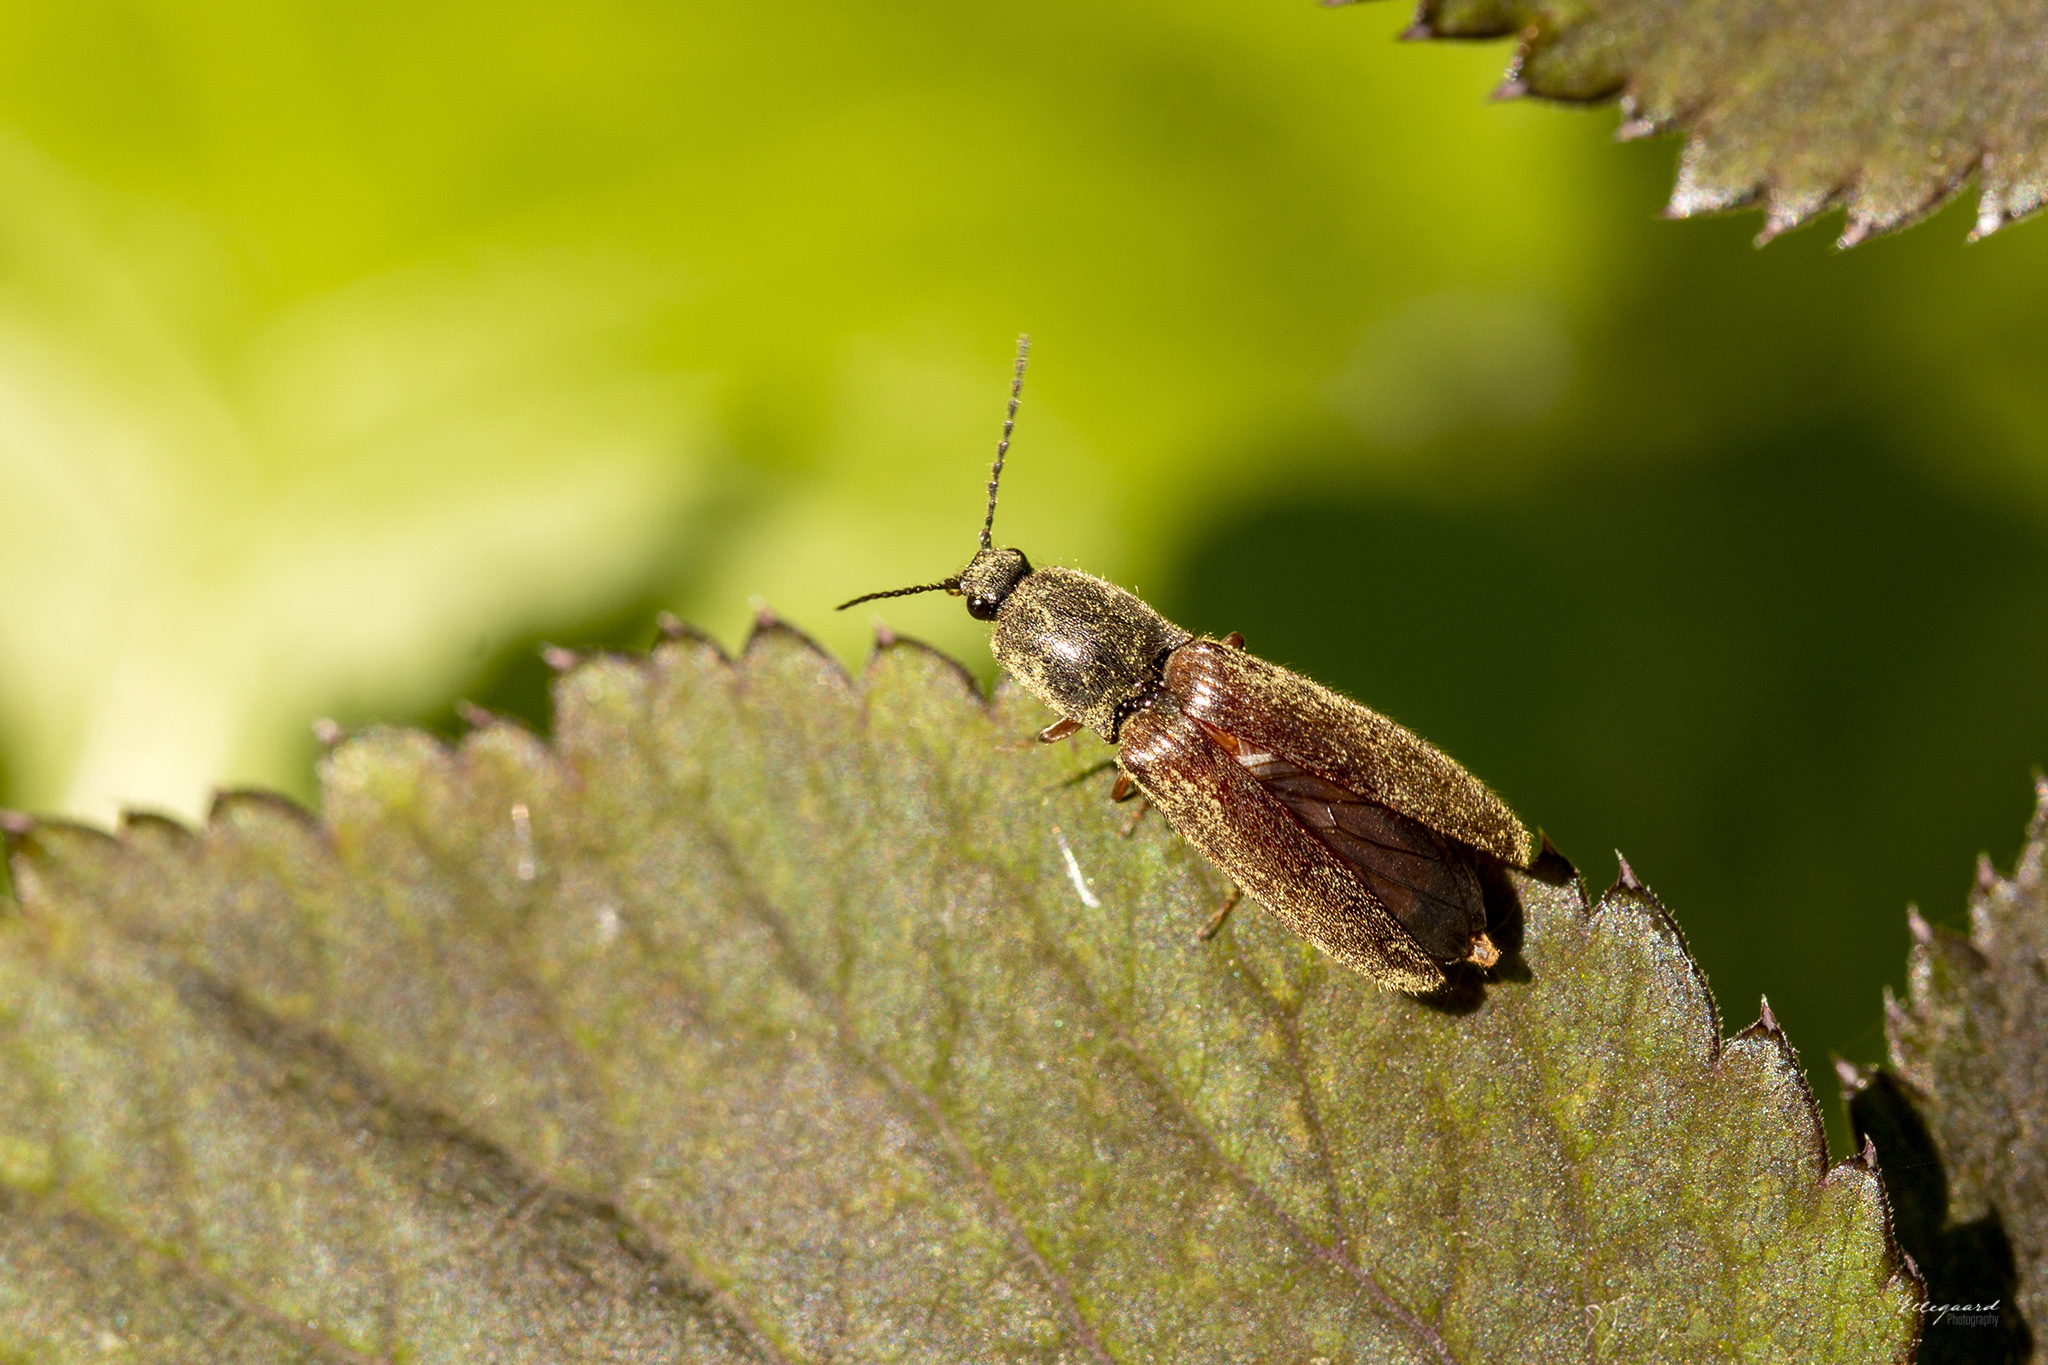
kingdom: Animalia
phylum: Arthropoda
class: Insecta
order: Coleoptera
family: Elateridae
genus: Athous
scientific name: Athous haemorrhoidalis
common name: Red-brown click beetle
